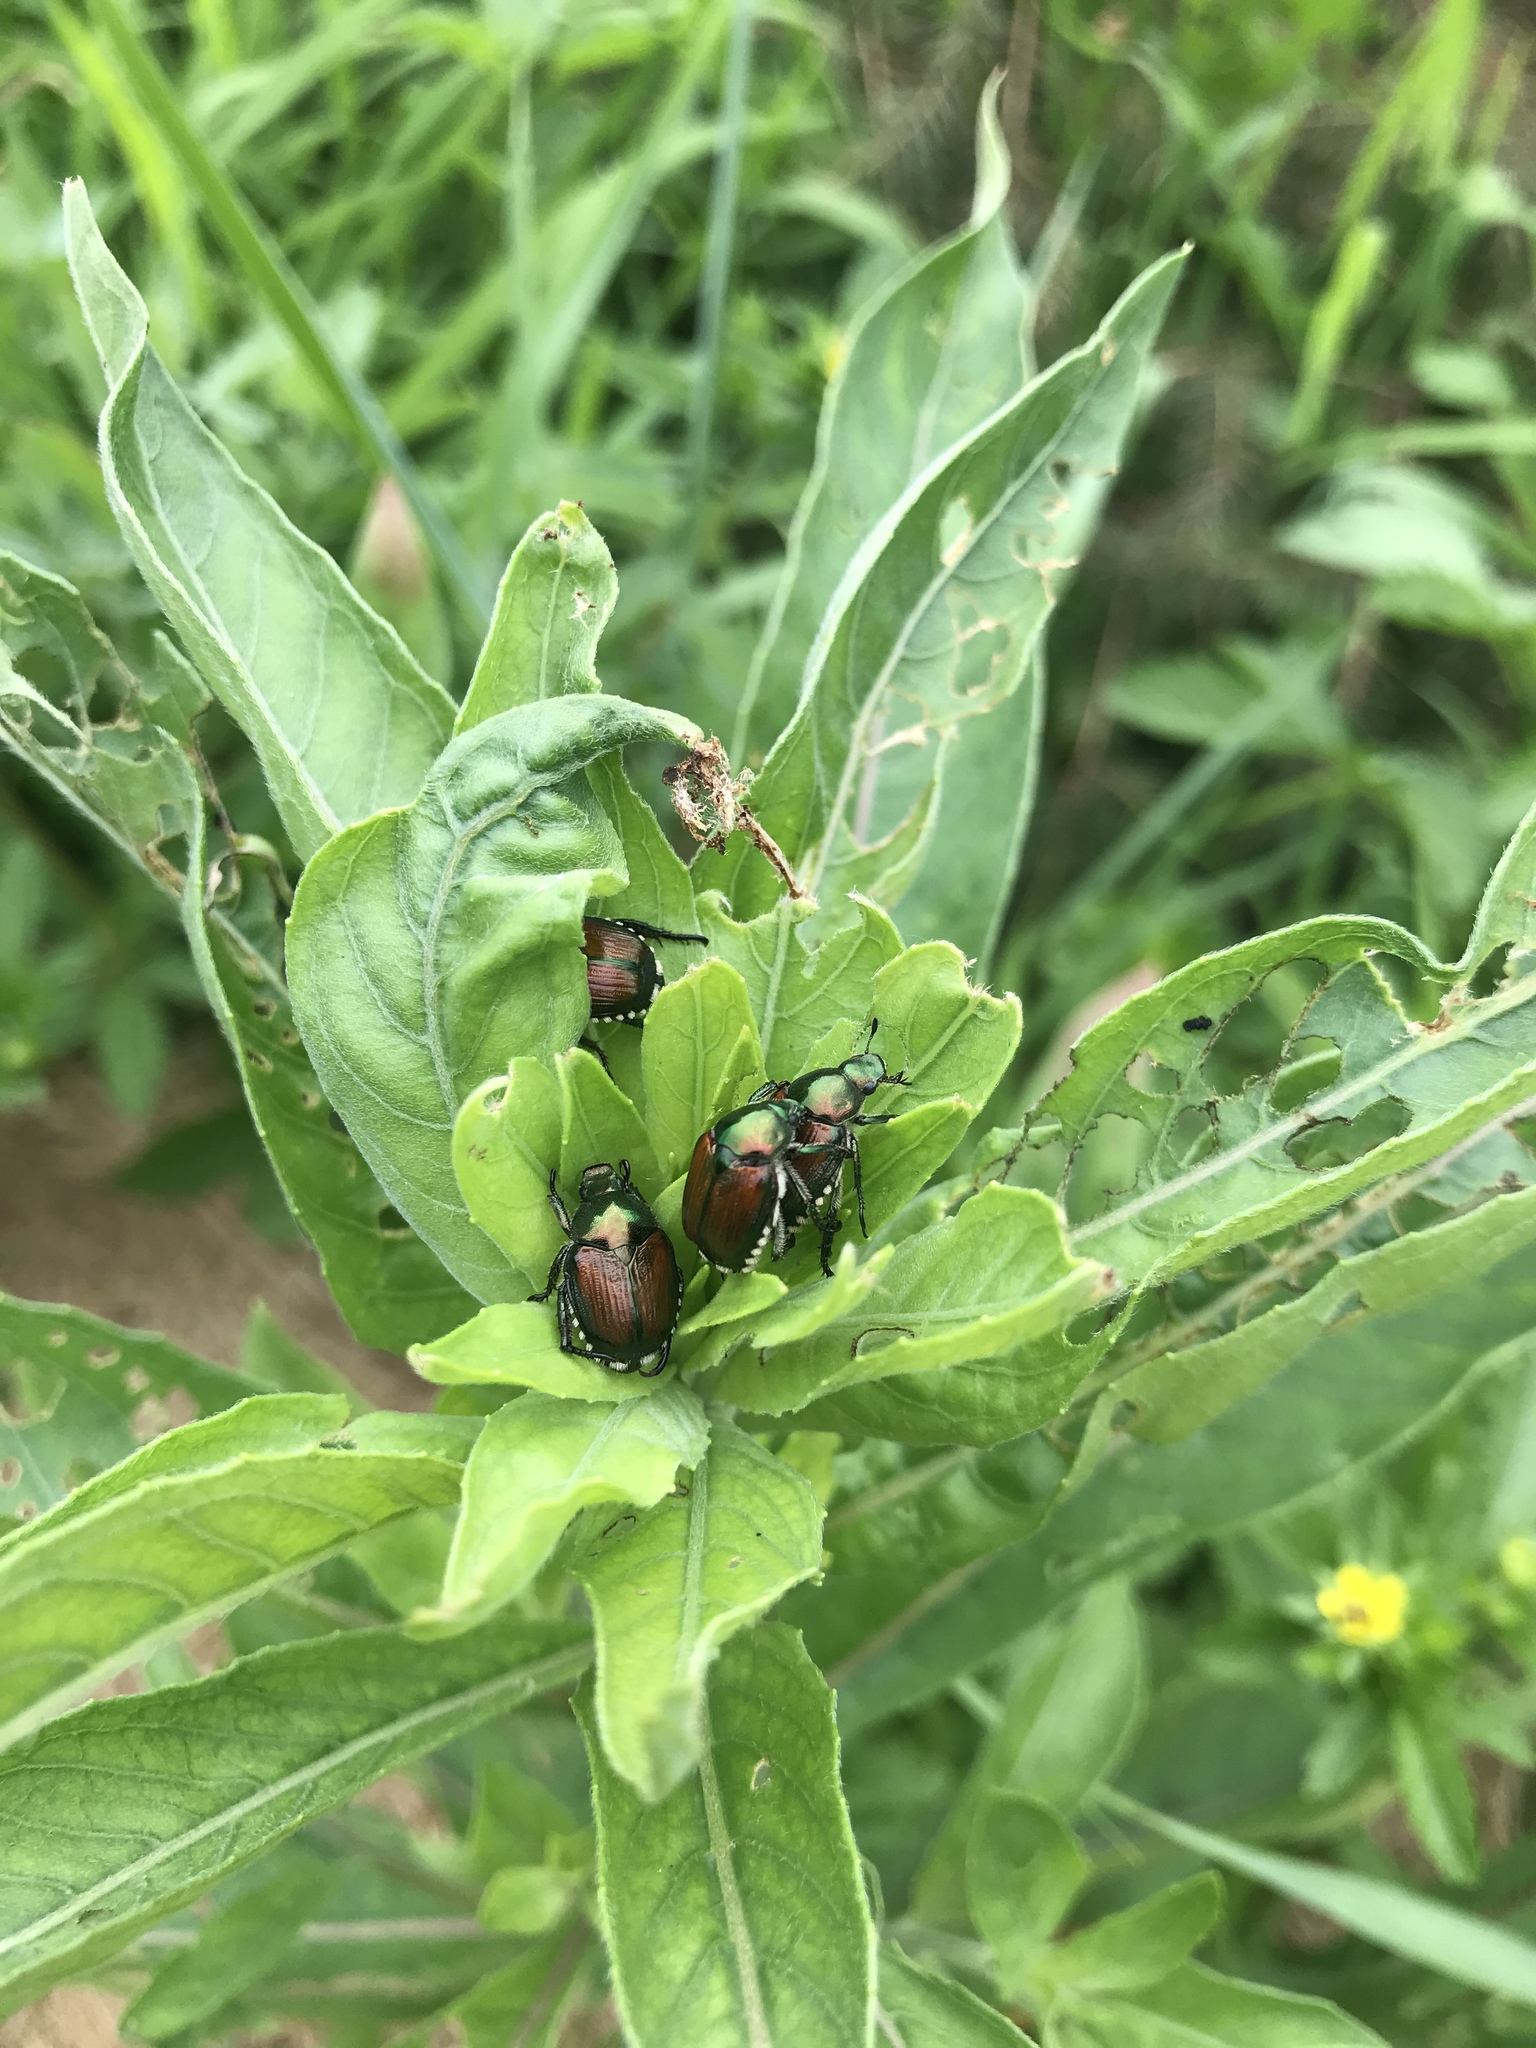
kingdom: Animalia
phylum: Arthropoda
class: Insecta
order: Coleoptera
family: Scarabaeidae
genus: Popillia
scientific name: Popillia japonica
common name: Japanese beetle
